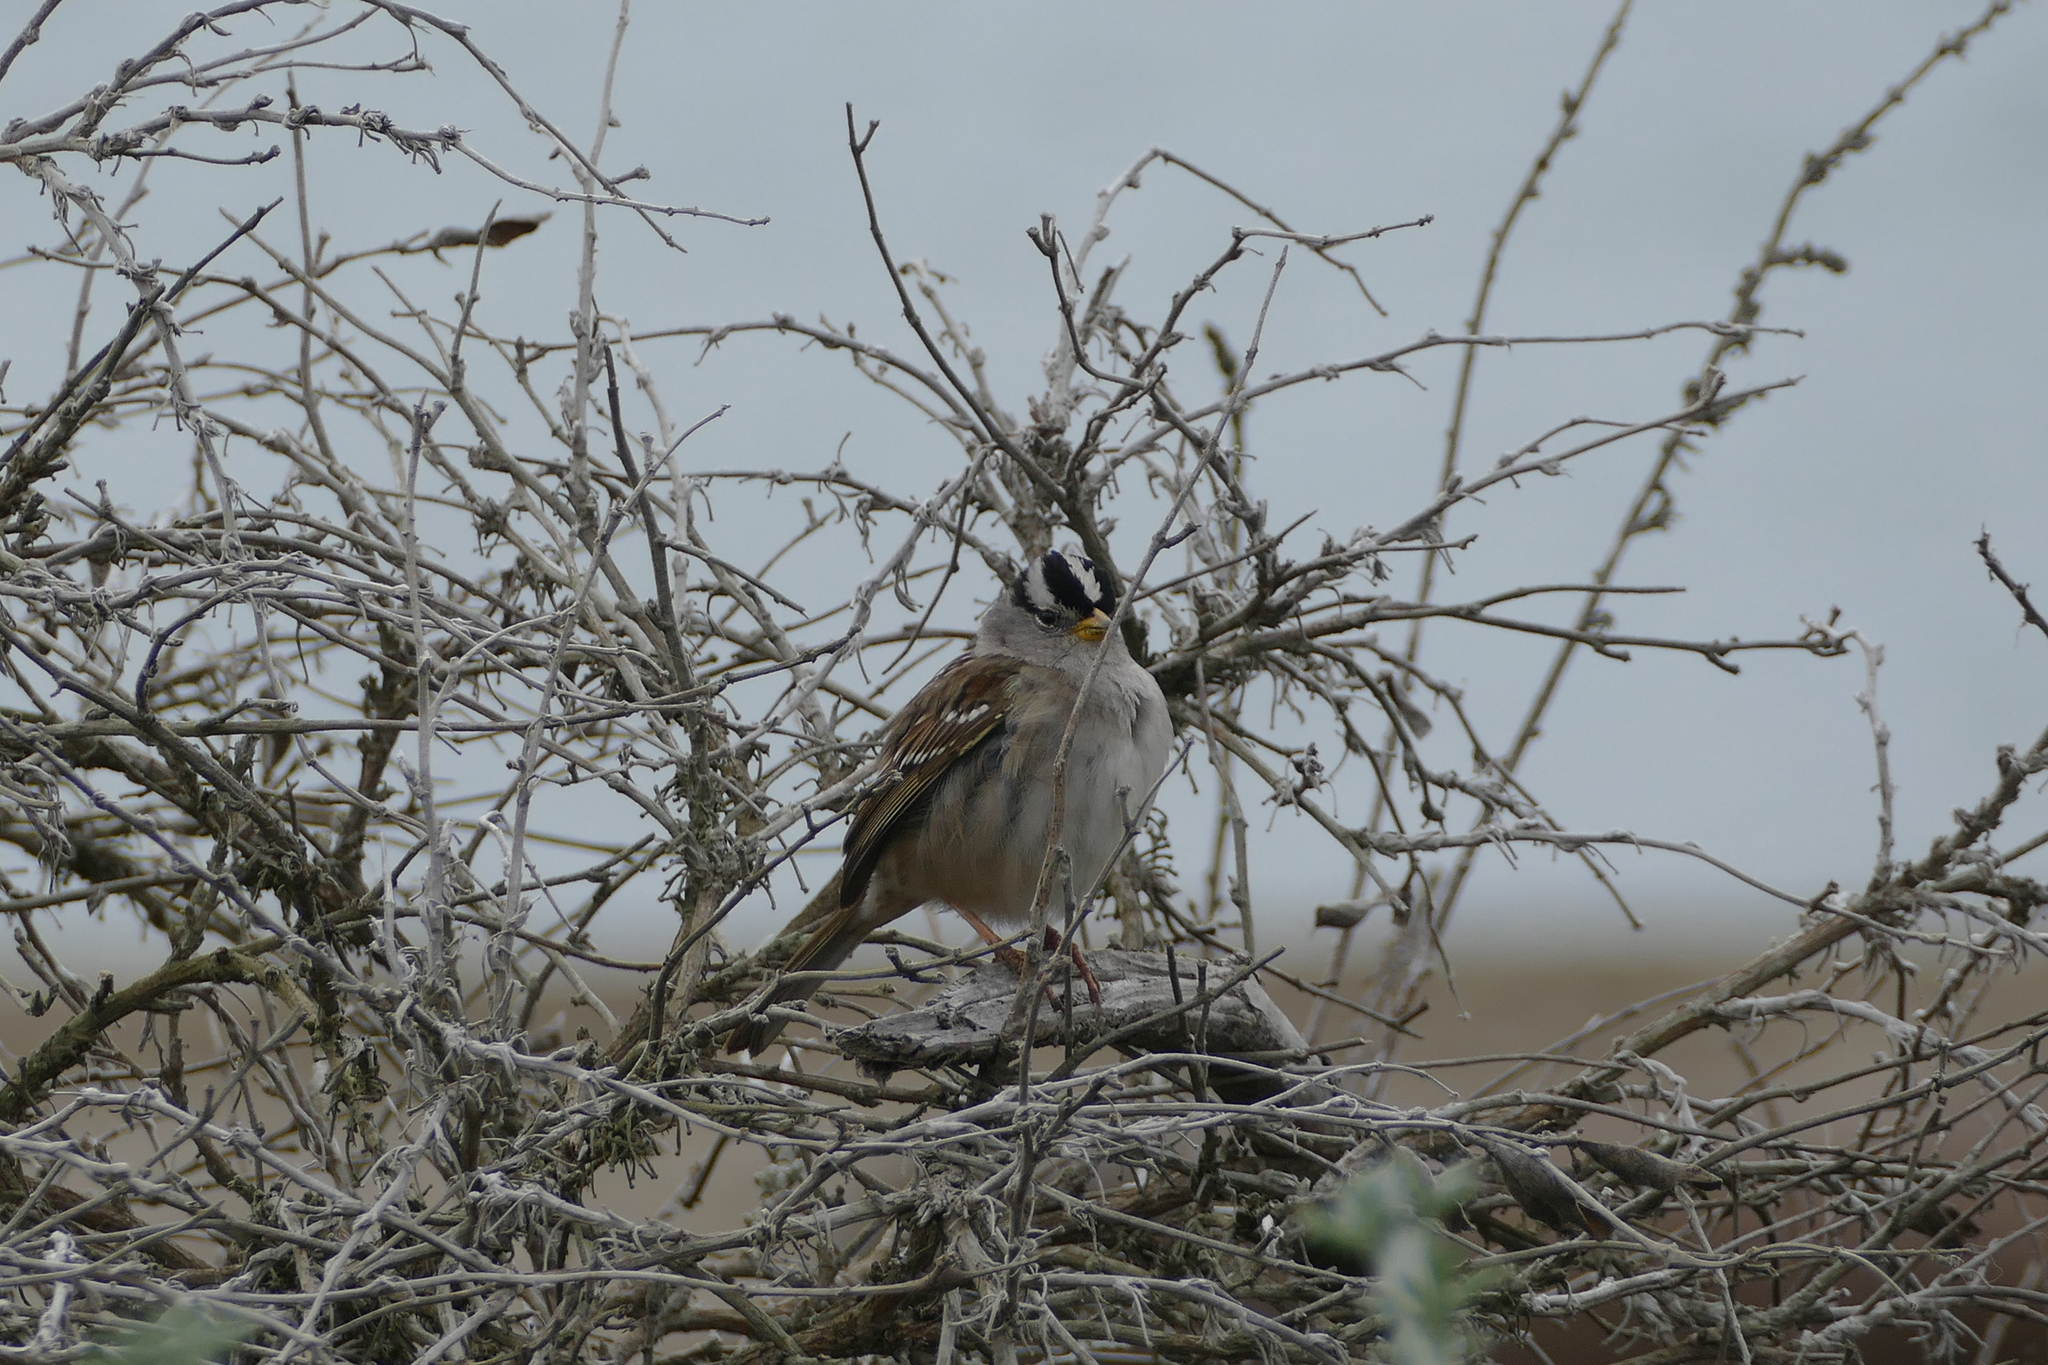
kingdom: Animalia
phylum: Chordata
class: Aves
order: Passeriformes
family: Passerellidae
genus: Zonotrichia
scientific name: Zonotrichia leucophrys
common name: White-crowned sparrow
